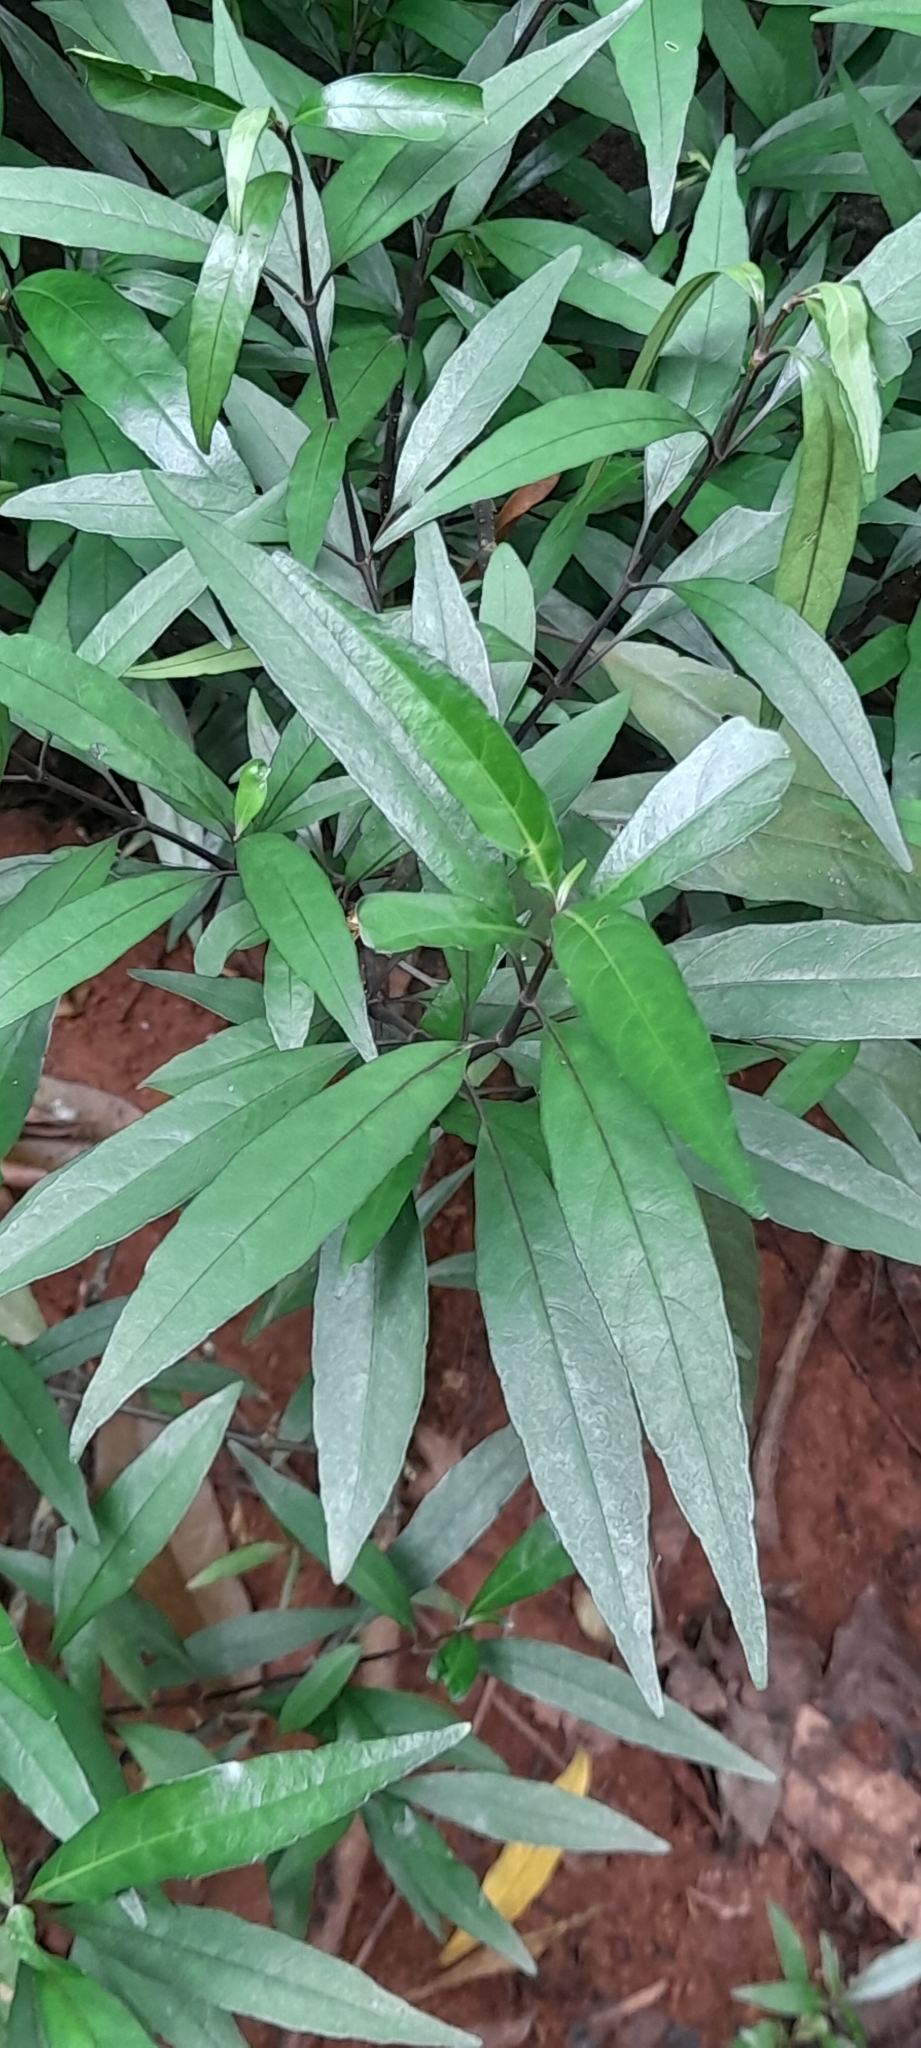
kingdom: Plantae
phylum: Tracheophyta
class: Magnoliopsida
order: Lamiales
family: Acanthaceae
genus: Justicia
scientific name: Justicia gendarussa
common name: Warer willow
